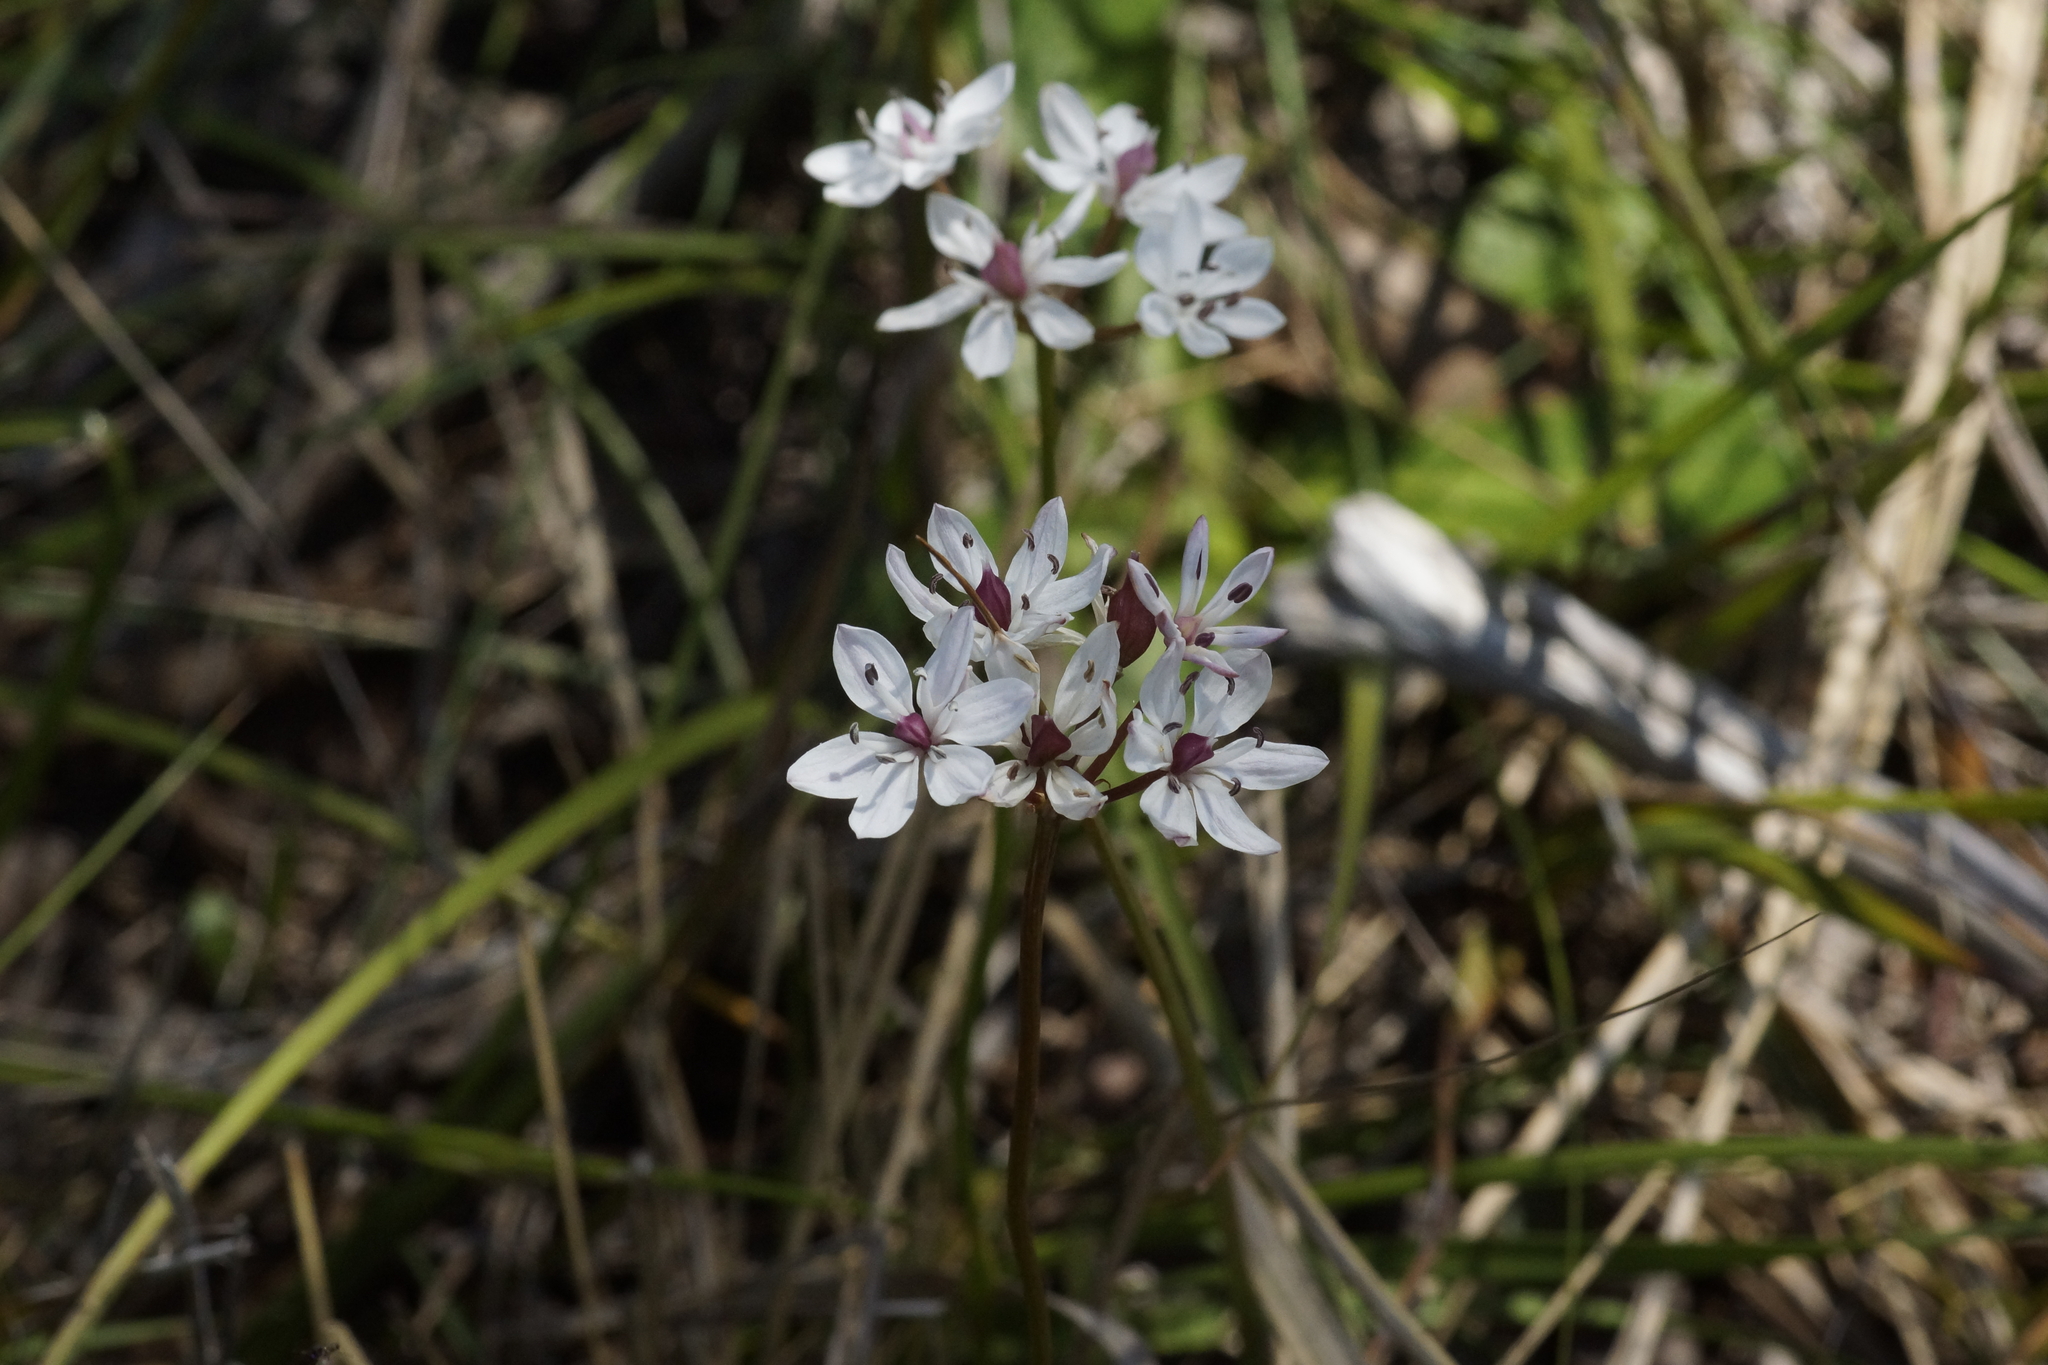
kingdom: Plantae
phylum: Tracheophyta
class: Liliopsida
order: Liliales
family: Colchicaceae
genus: Burchardia
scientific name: Burchardia umbellata
